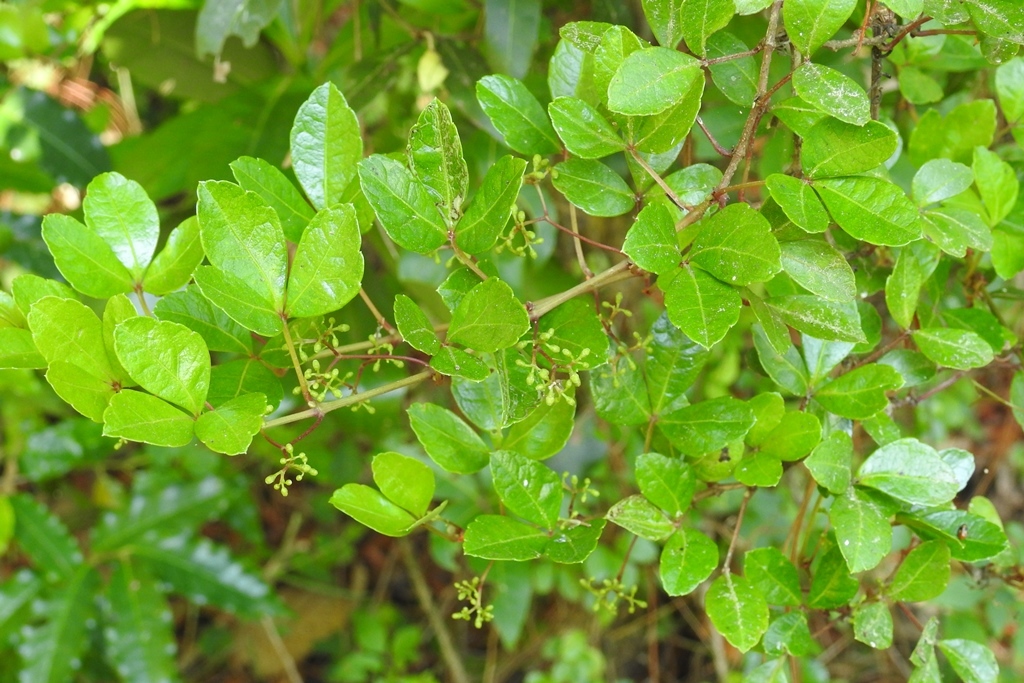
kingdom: Plantae
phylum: Tracheophyta
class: Magnoliopsida
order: Vitales
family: Vitaceae
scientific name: Vitaceae
